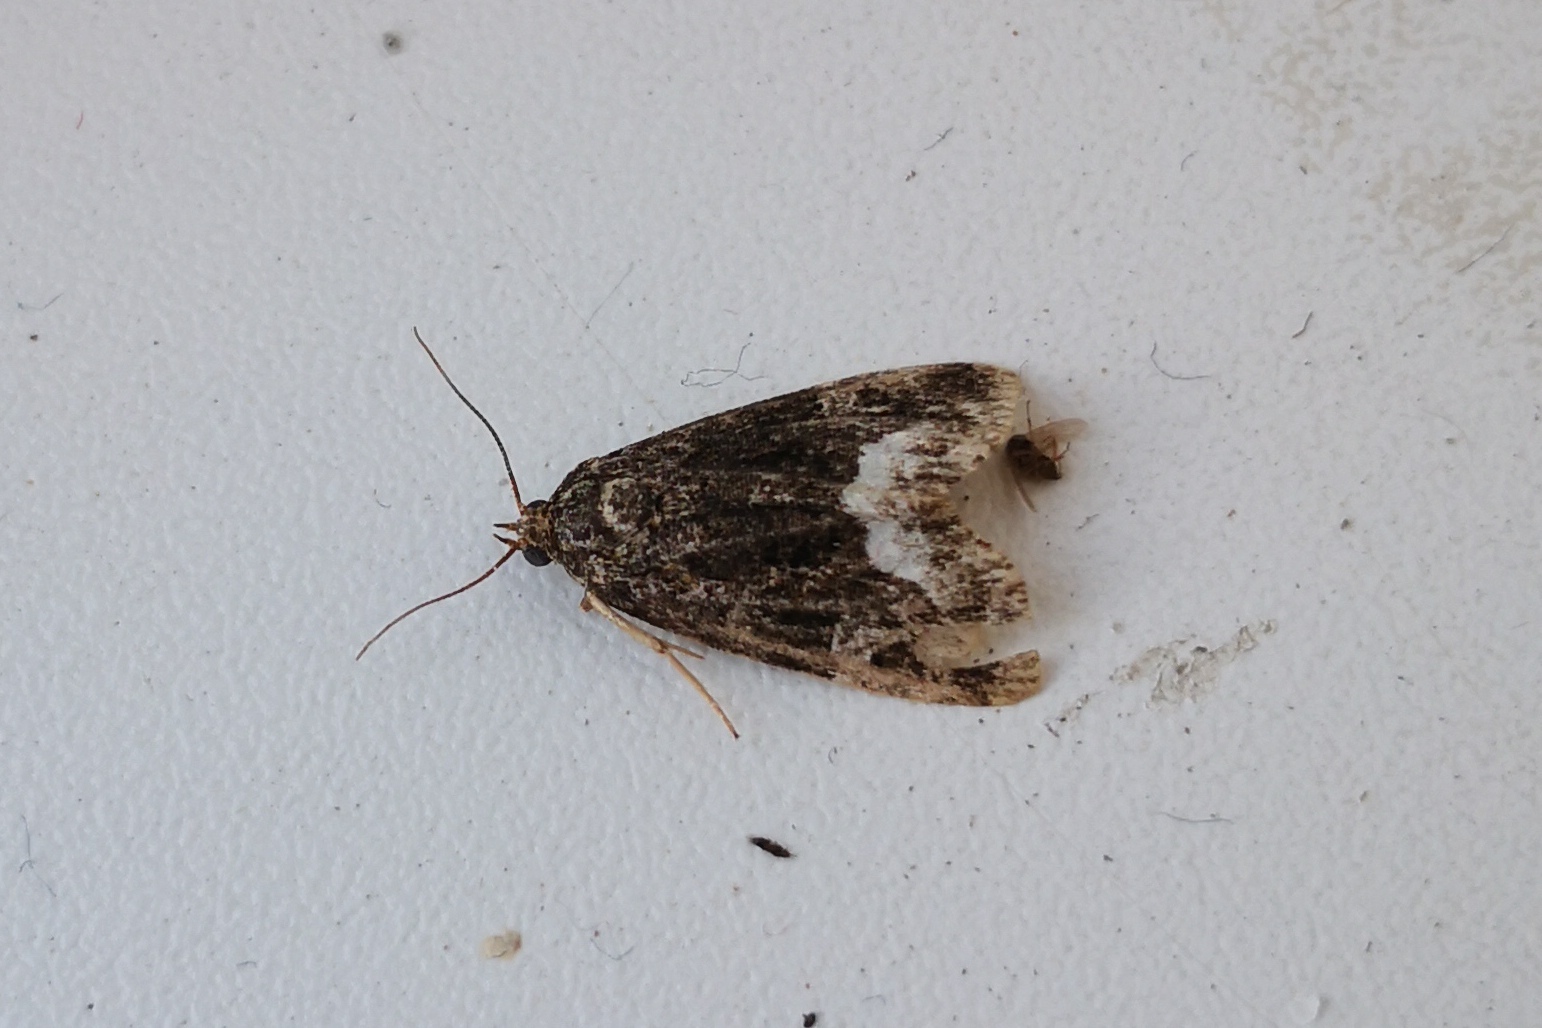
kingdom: Animalia
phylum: Arthropoda
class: Insecta
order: Lepidoptera
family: Noctuidae
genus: Deltote
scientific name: Deltote pygarga
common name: Marbled white spot
